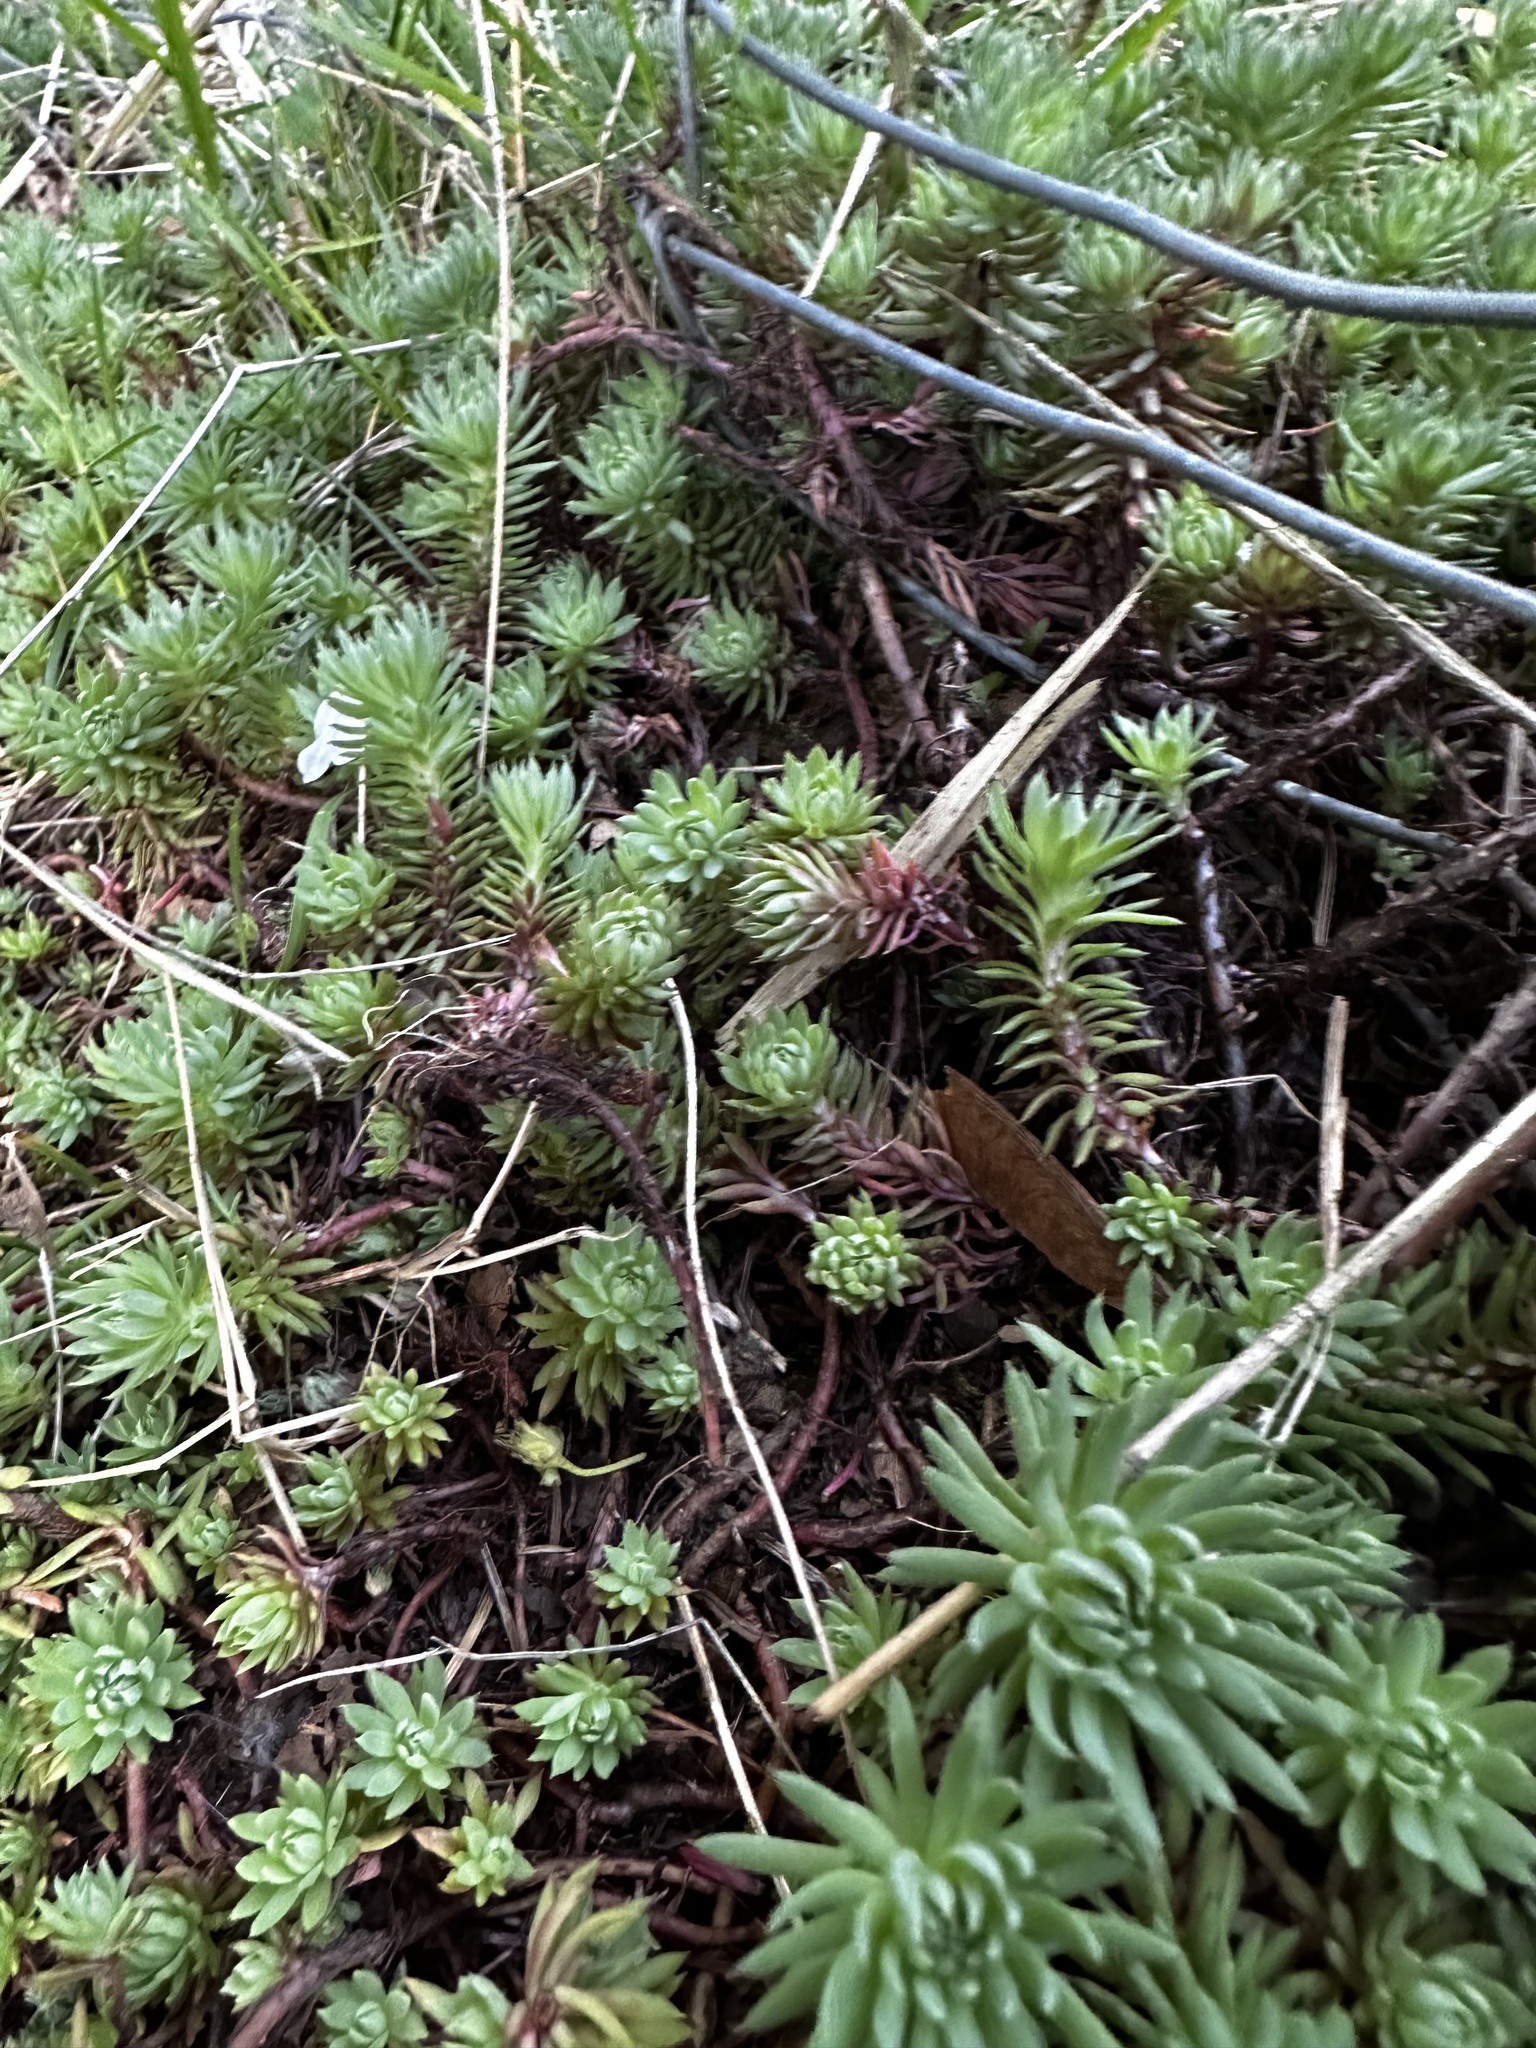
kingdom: Plantae
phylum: Tracheophyta
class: Magnoliopsida
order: Saxifragales
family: Crassulaceae
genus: Petrosedum
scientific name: Petrosedum forsterianum
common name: Forster's stonecrop
